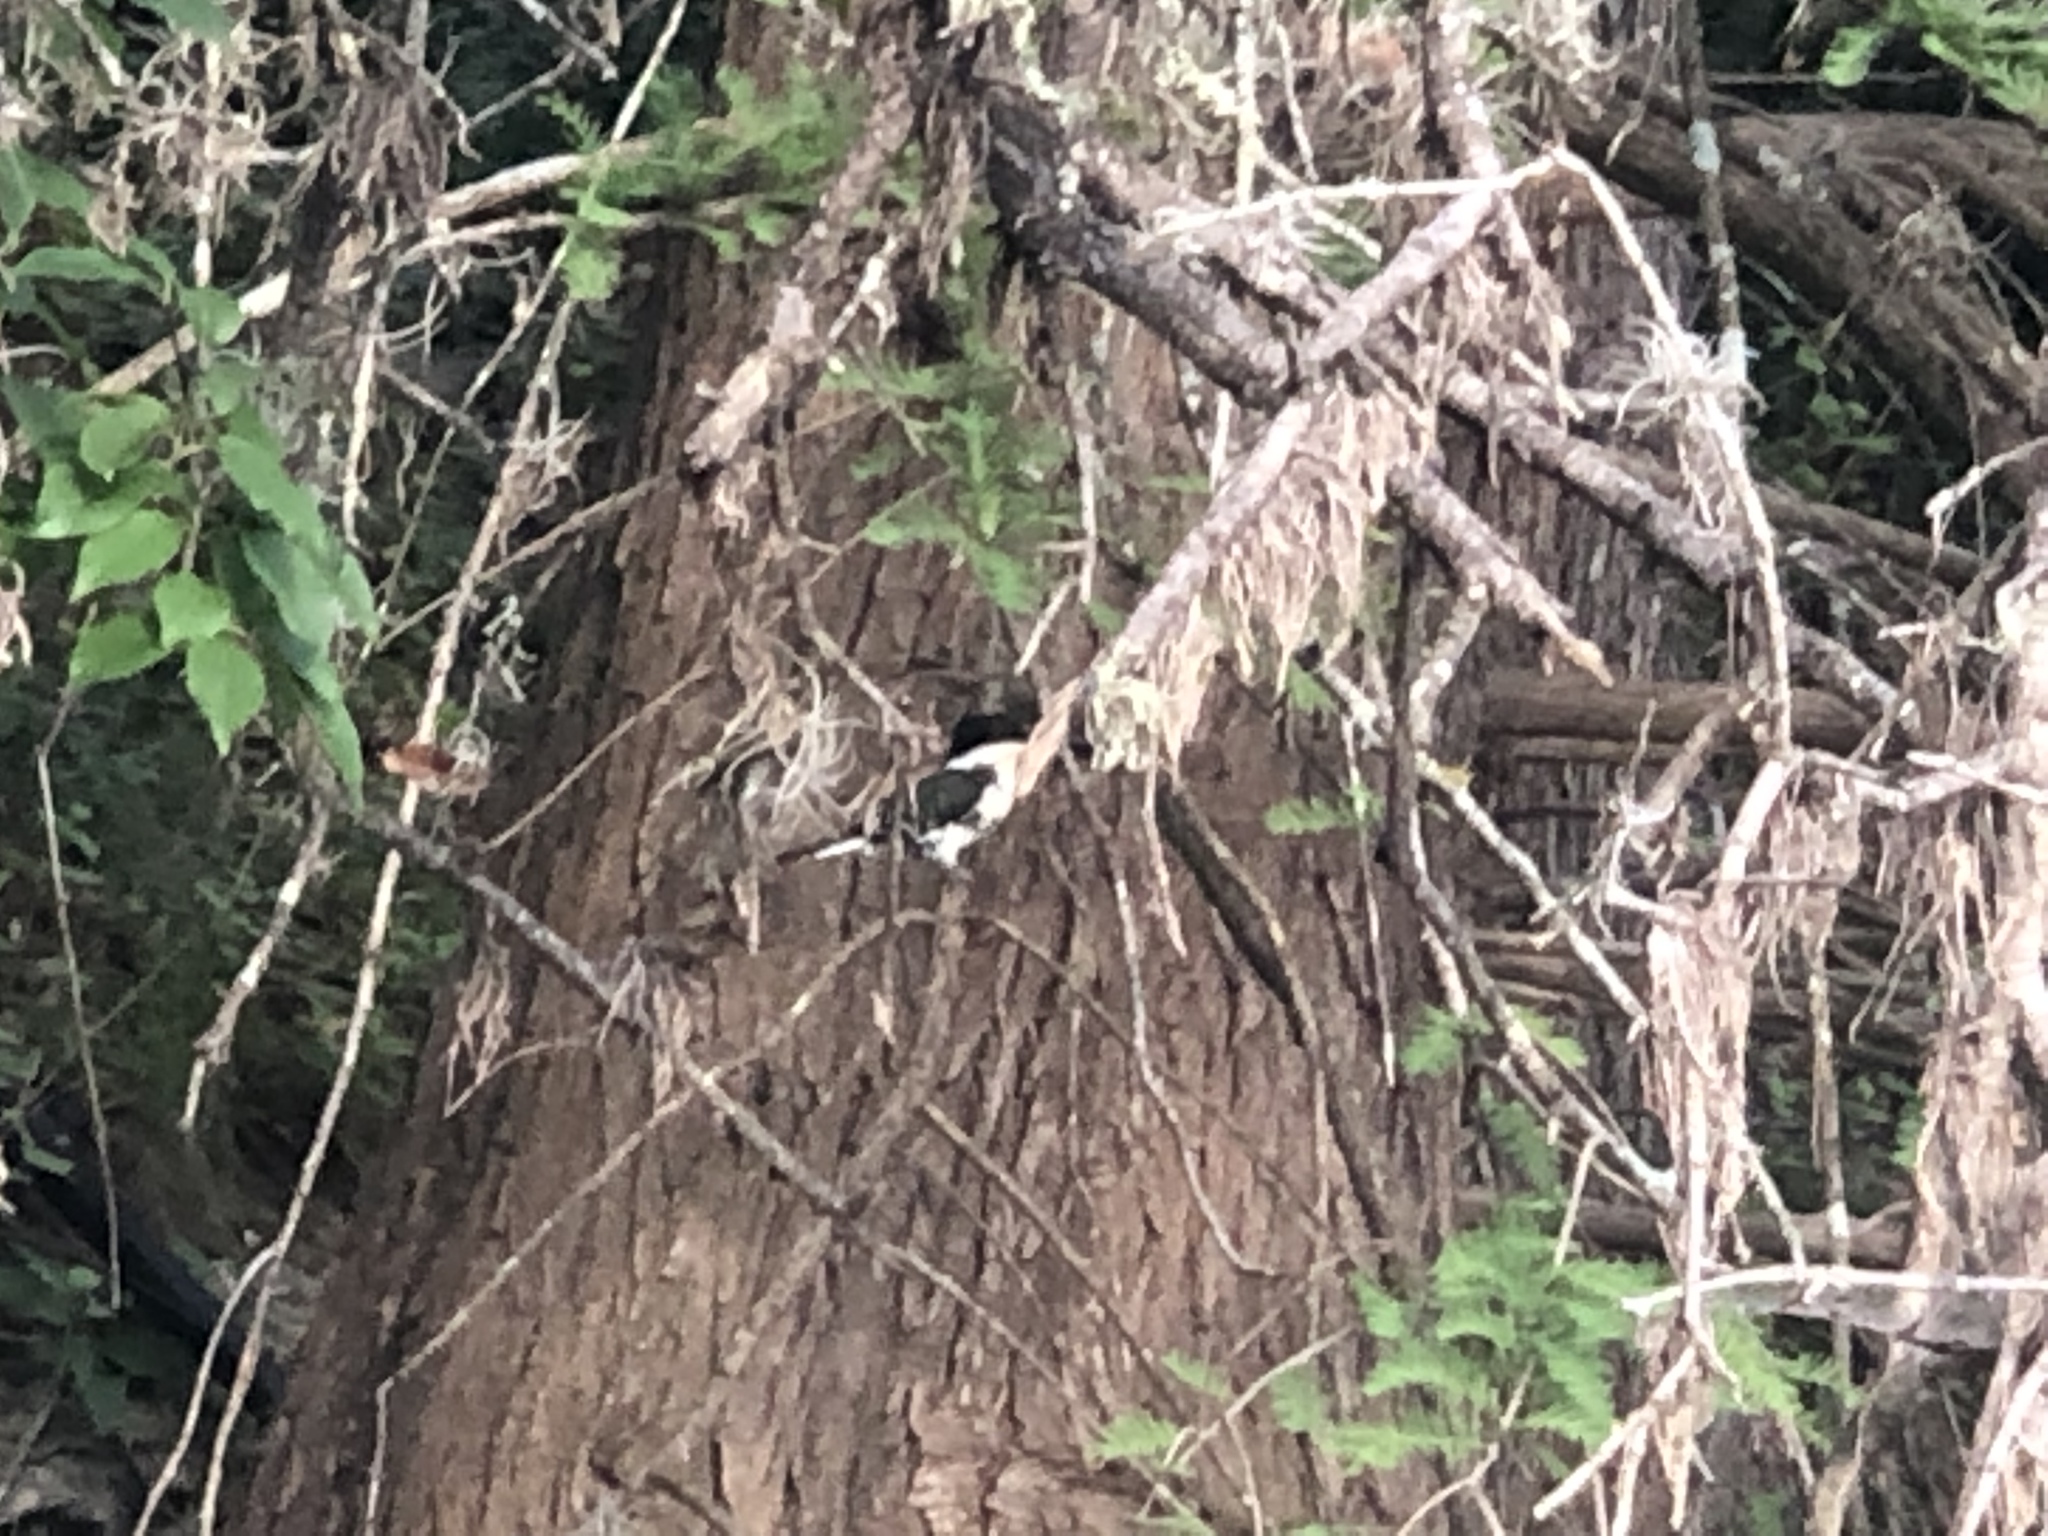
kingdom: Animalia
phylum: Chordata
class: Aves
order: Coraciiformes
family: Alcedinidae
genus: Megaceryle
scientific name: Megaceryle alcyon
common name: Belted kingfisher
